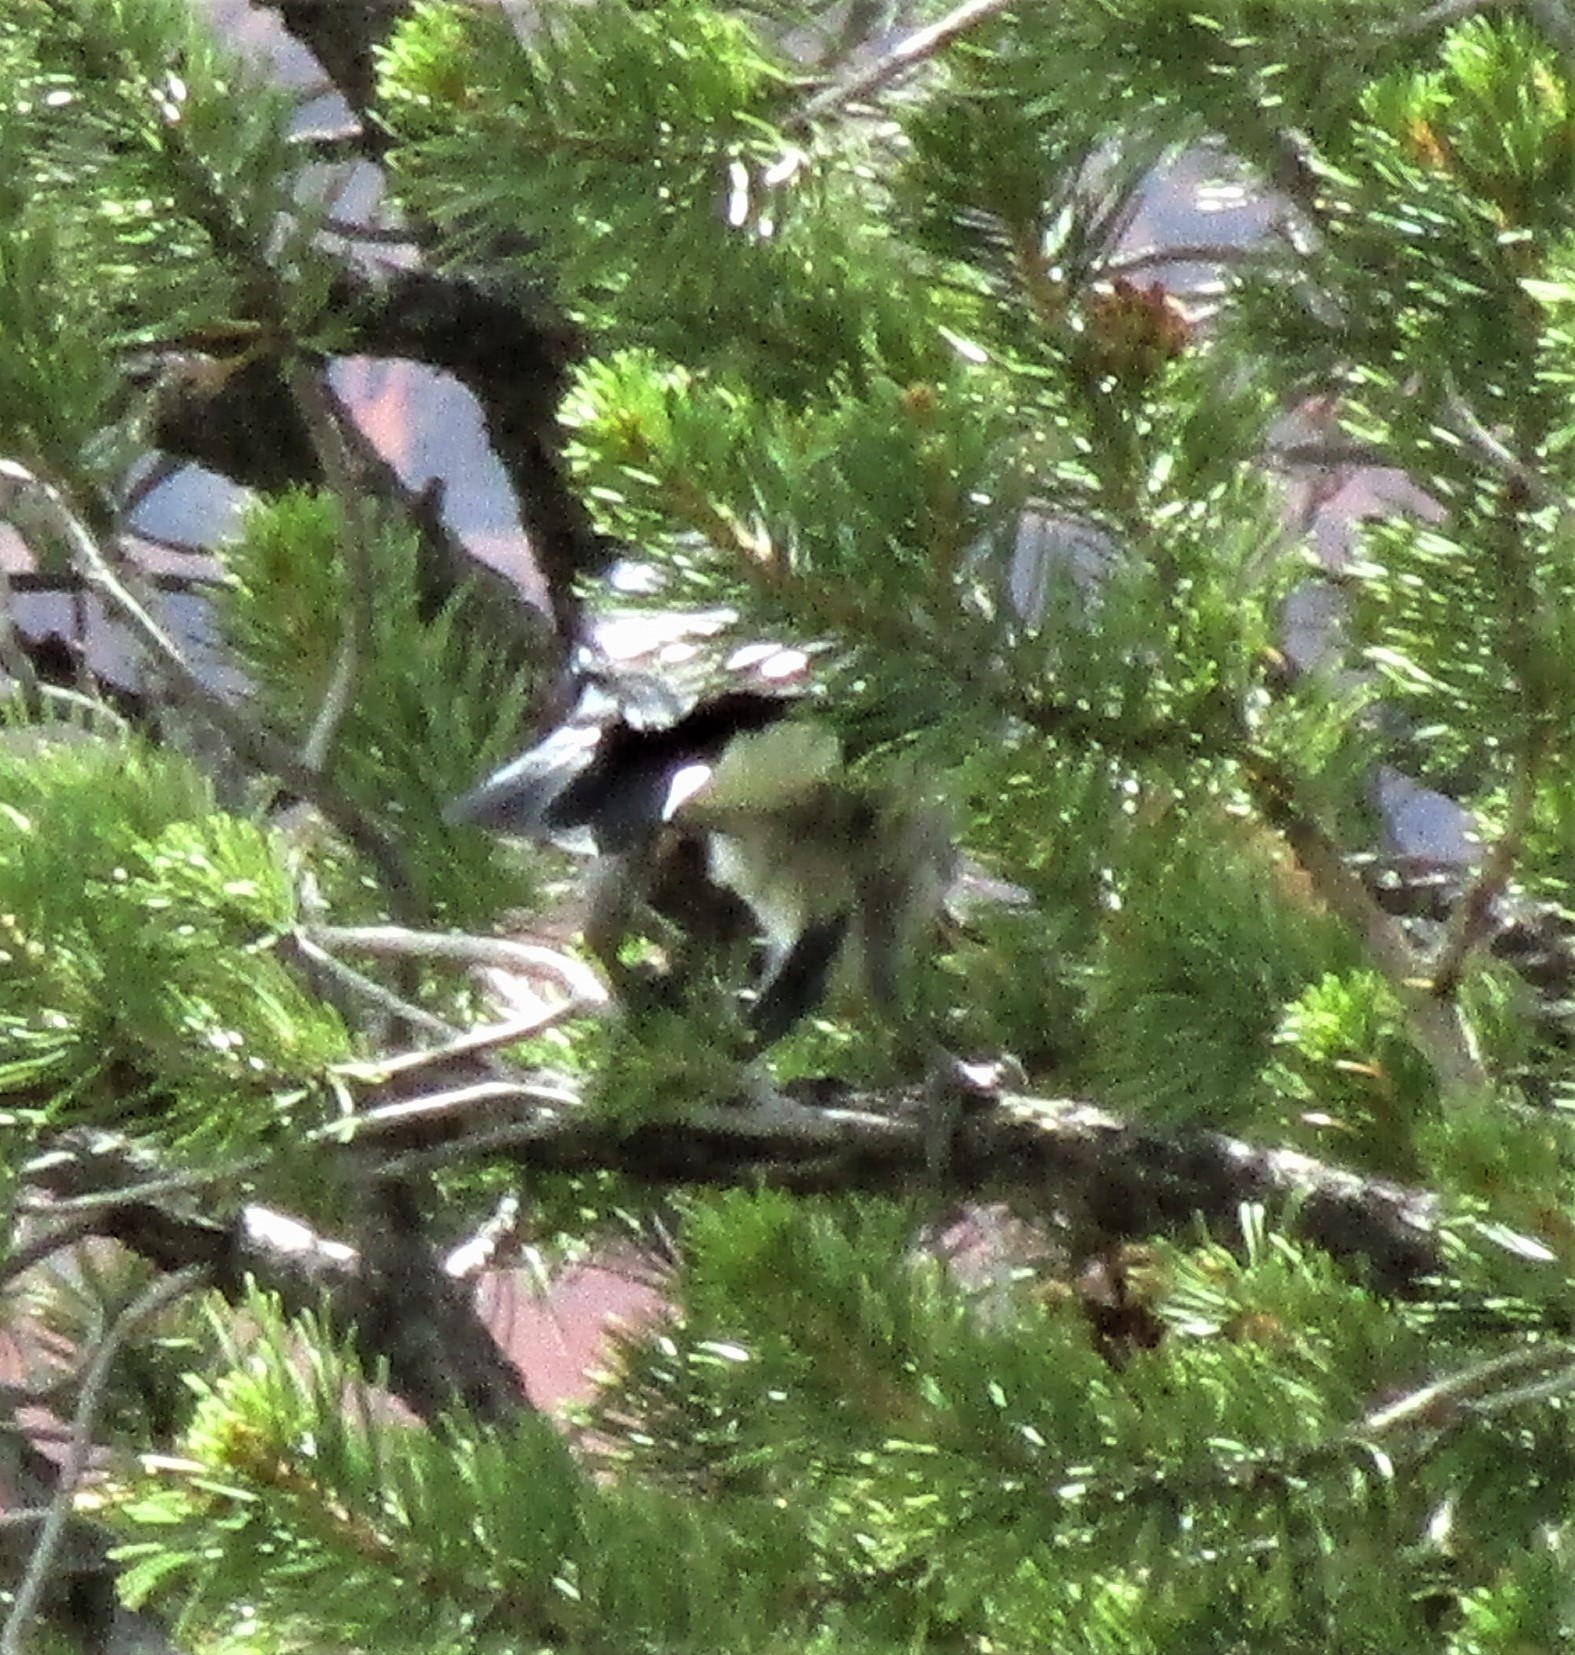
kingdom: Animalia
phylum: Chordata
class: Aves
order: Passeriformes
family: Corvidae
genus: Nucifraga
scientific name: Nucifraga columbiana
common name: Clark's nutcracker
